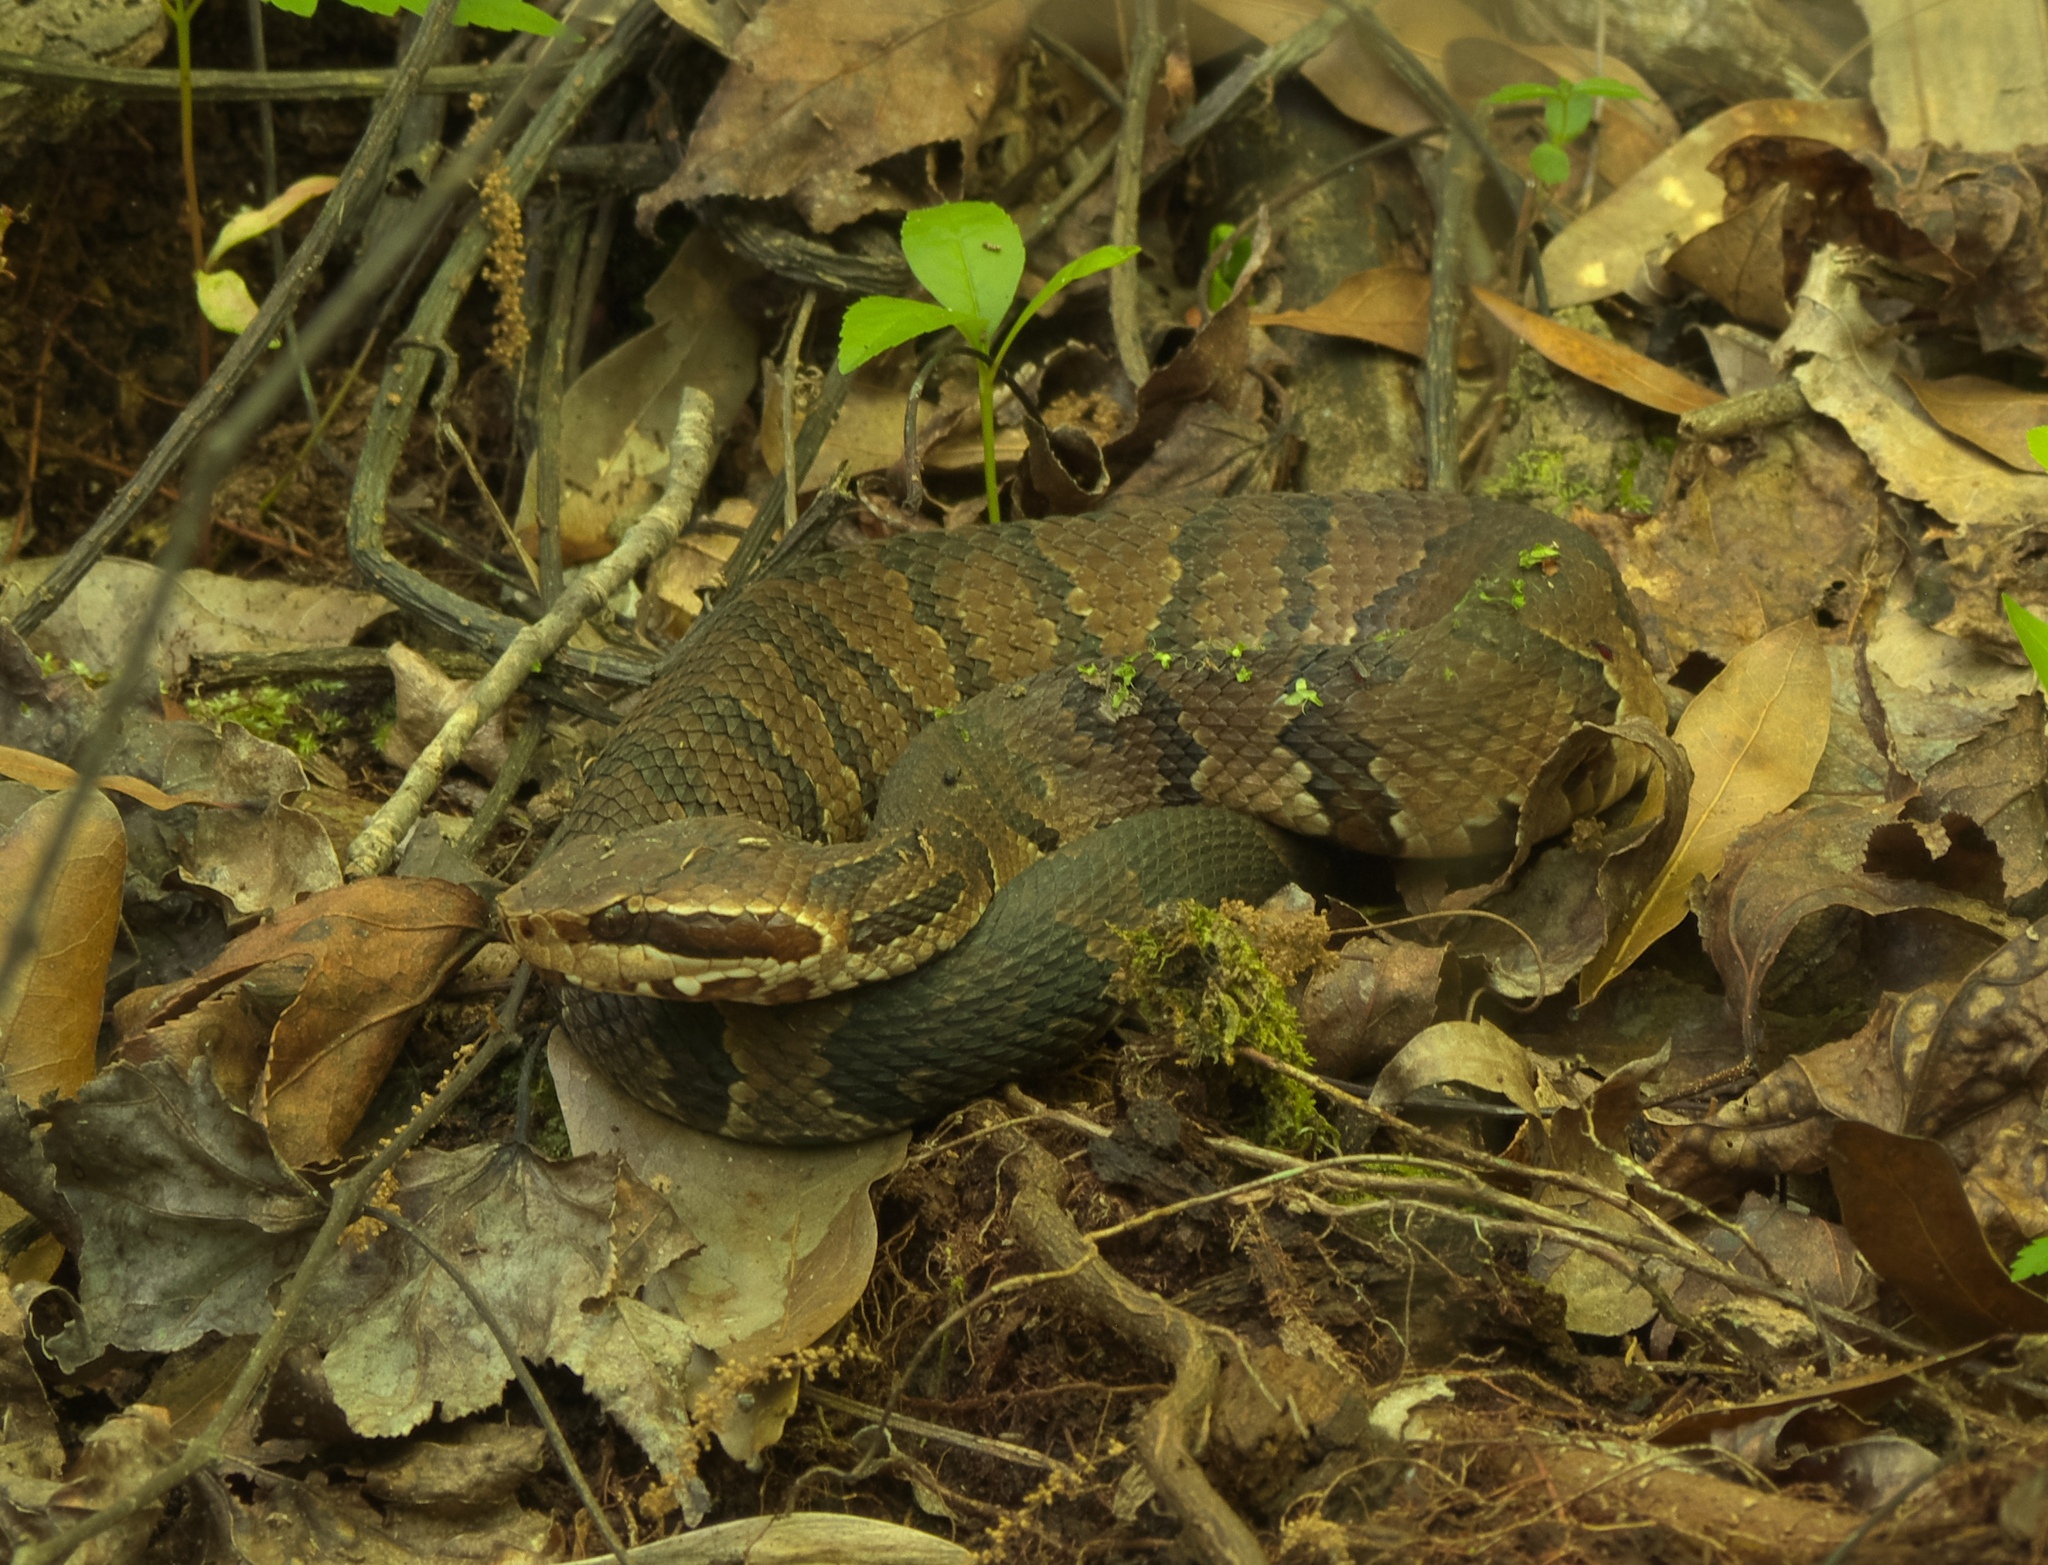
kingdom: Animalia
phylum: Chordata
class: Squamata
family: Viperidae
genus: Agkistrodon
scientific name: Agkistrodon conanti
